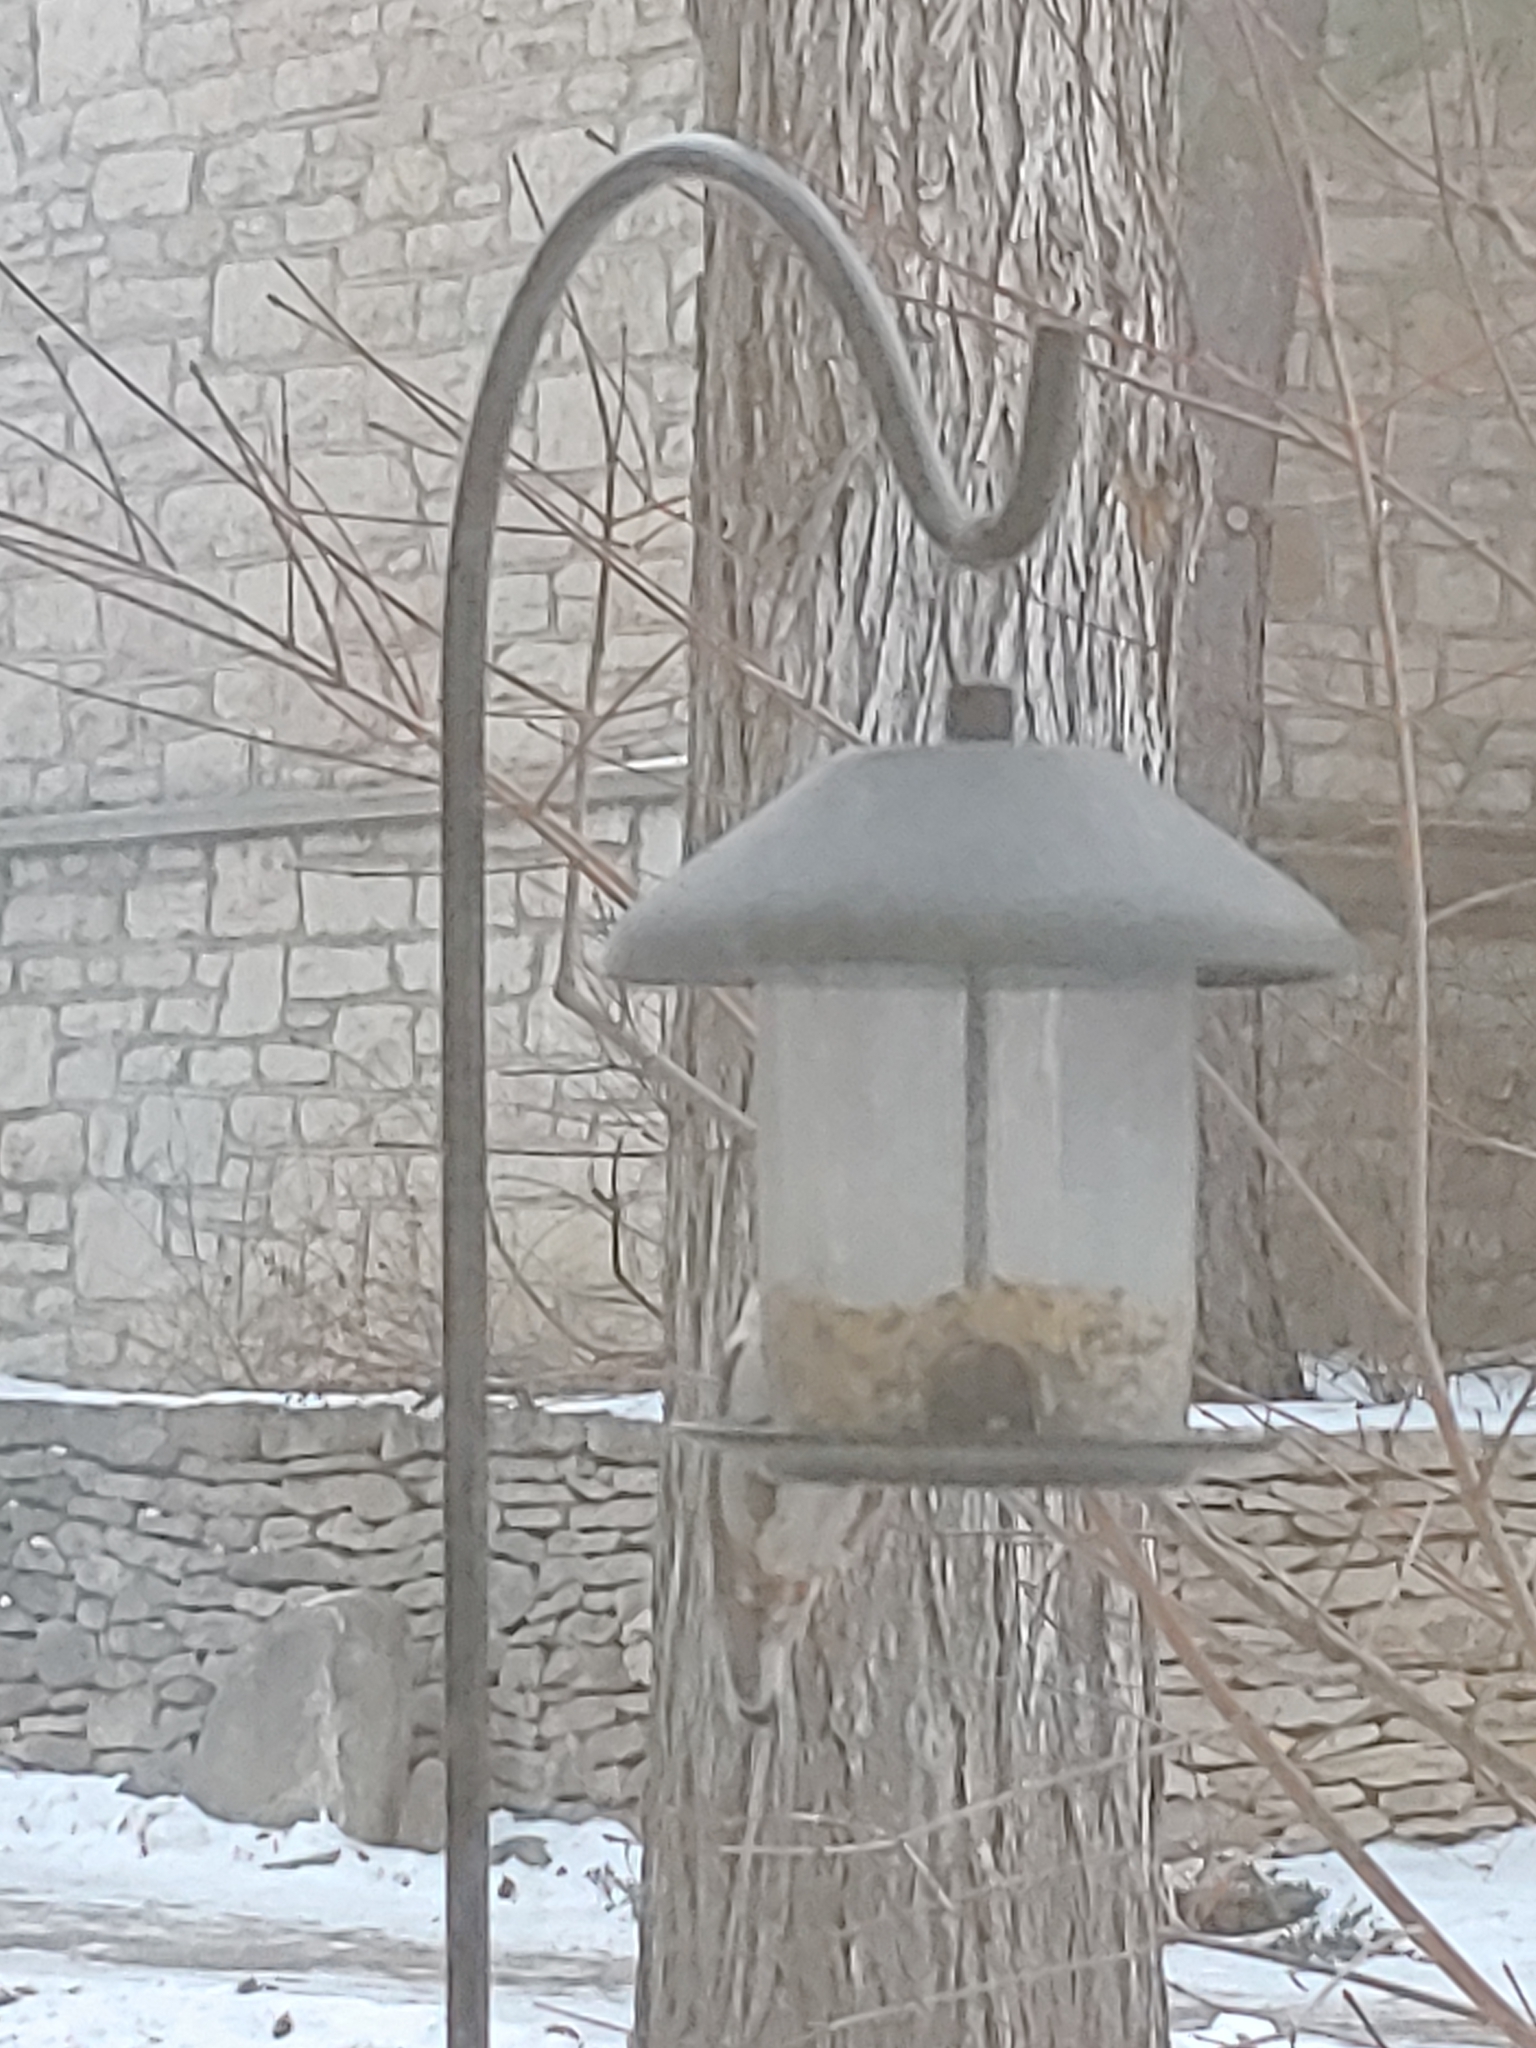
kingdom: Animalia
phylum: Chordata
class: Aves
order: Passeriformes
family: Sittidae
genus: Sitta
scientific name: Sitta carolinensis
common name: White-breasted nuthatch
